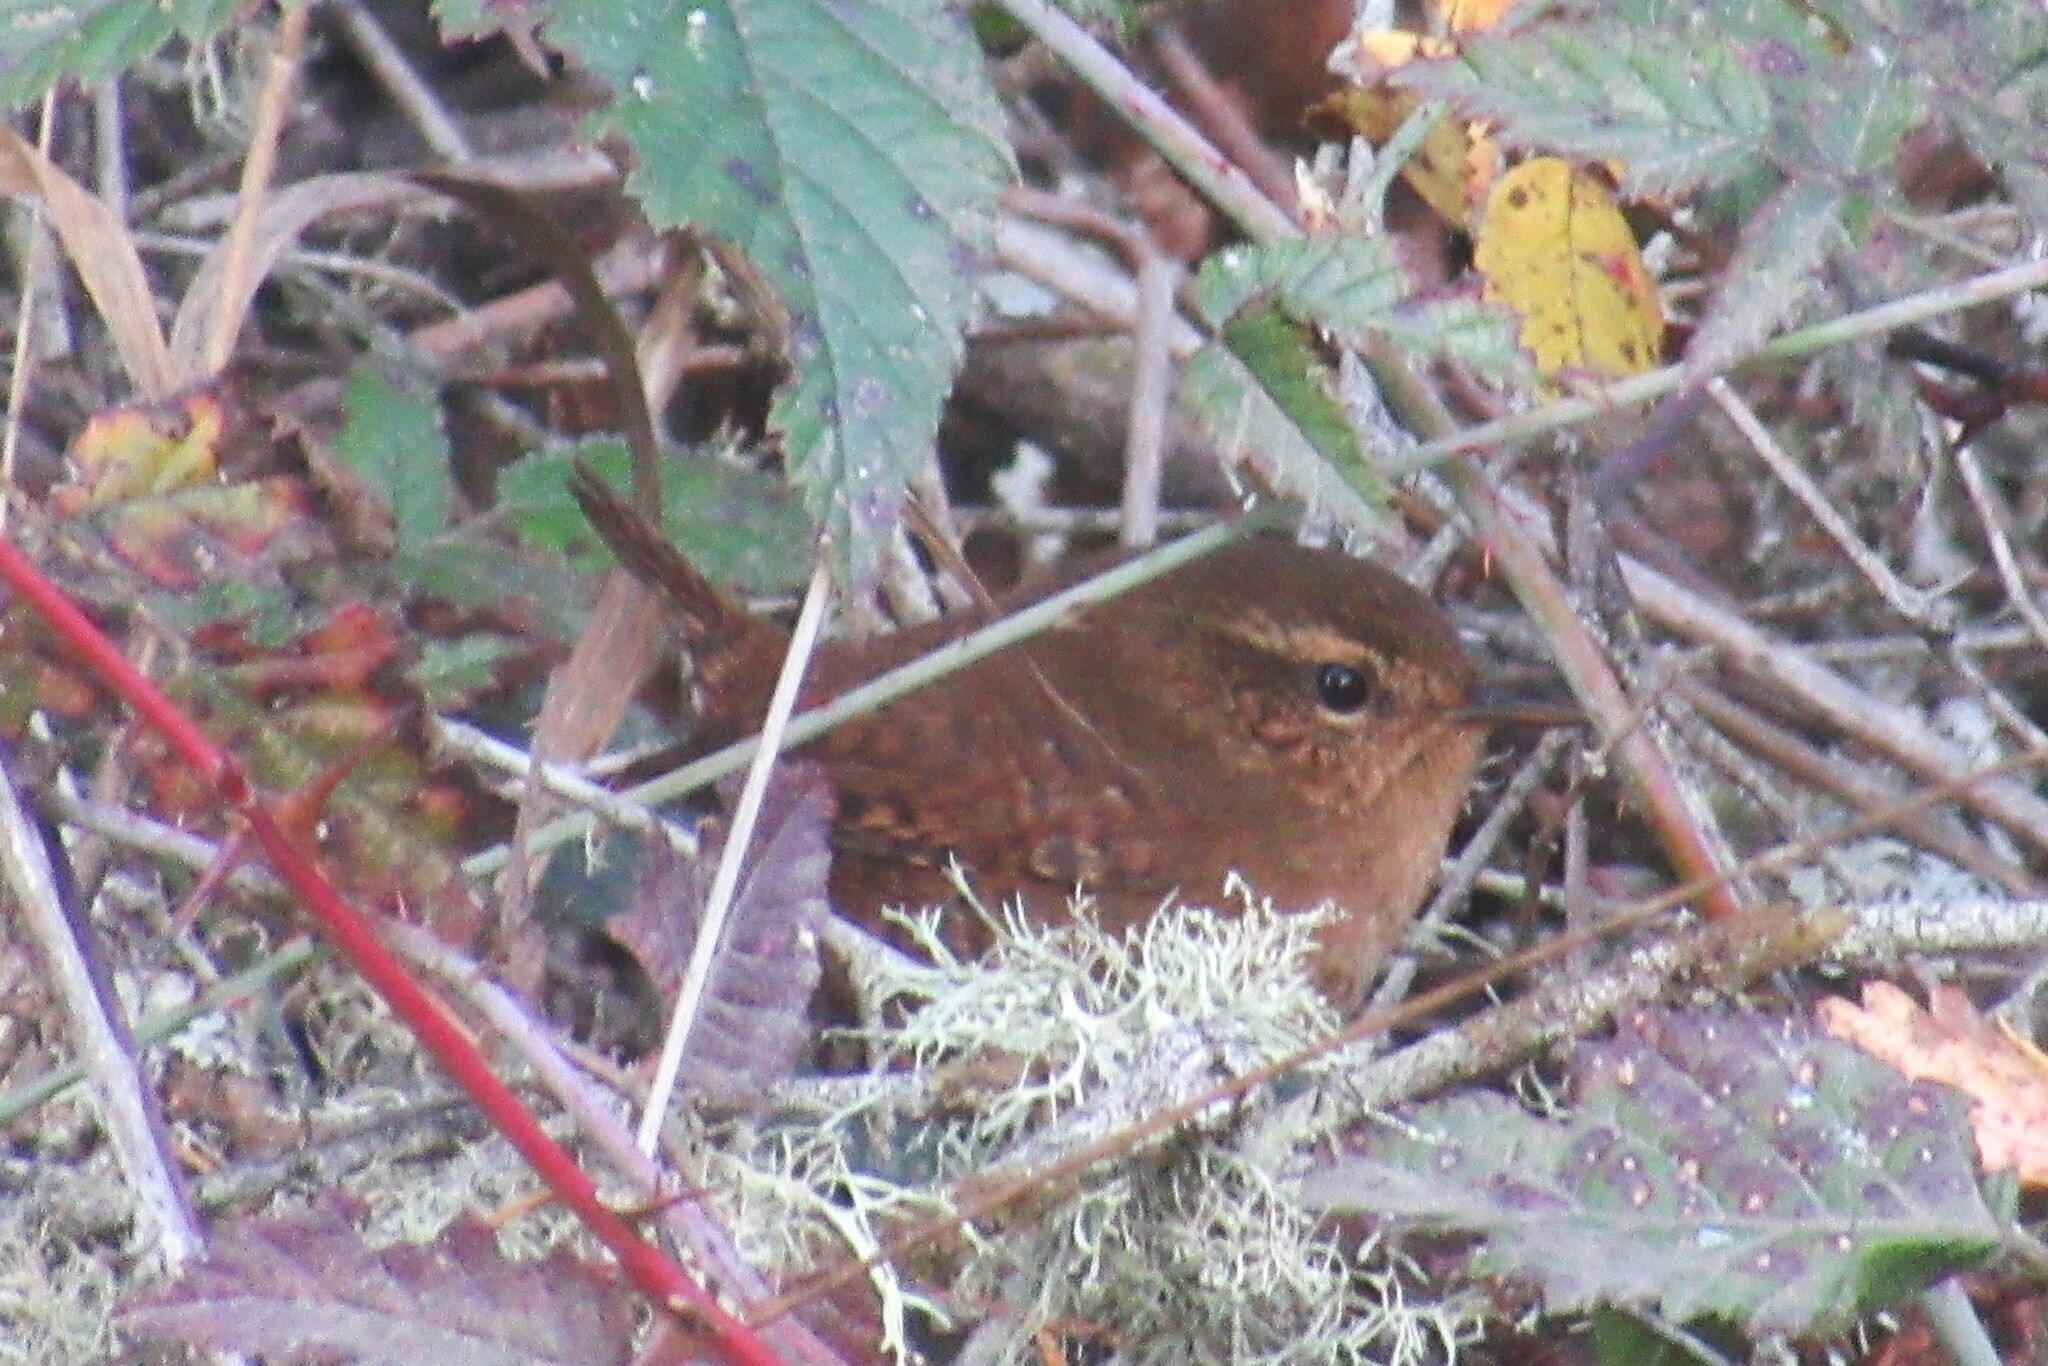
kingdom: Animalia
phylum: Chordata
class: Aves
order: Passeriformes
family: Troglodytidae
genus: Troglodytes
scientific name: Troglodytes pacificus
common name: Pacific wren
